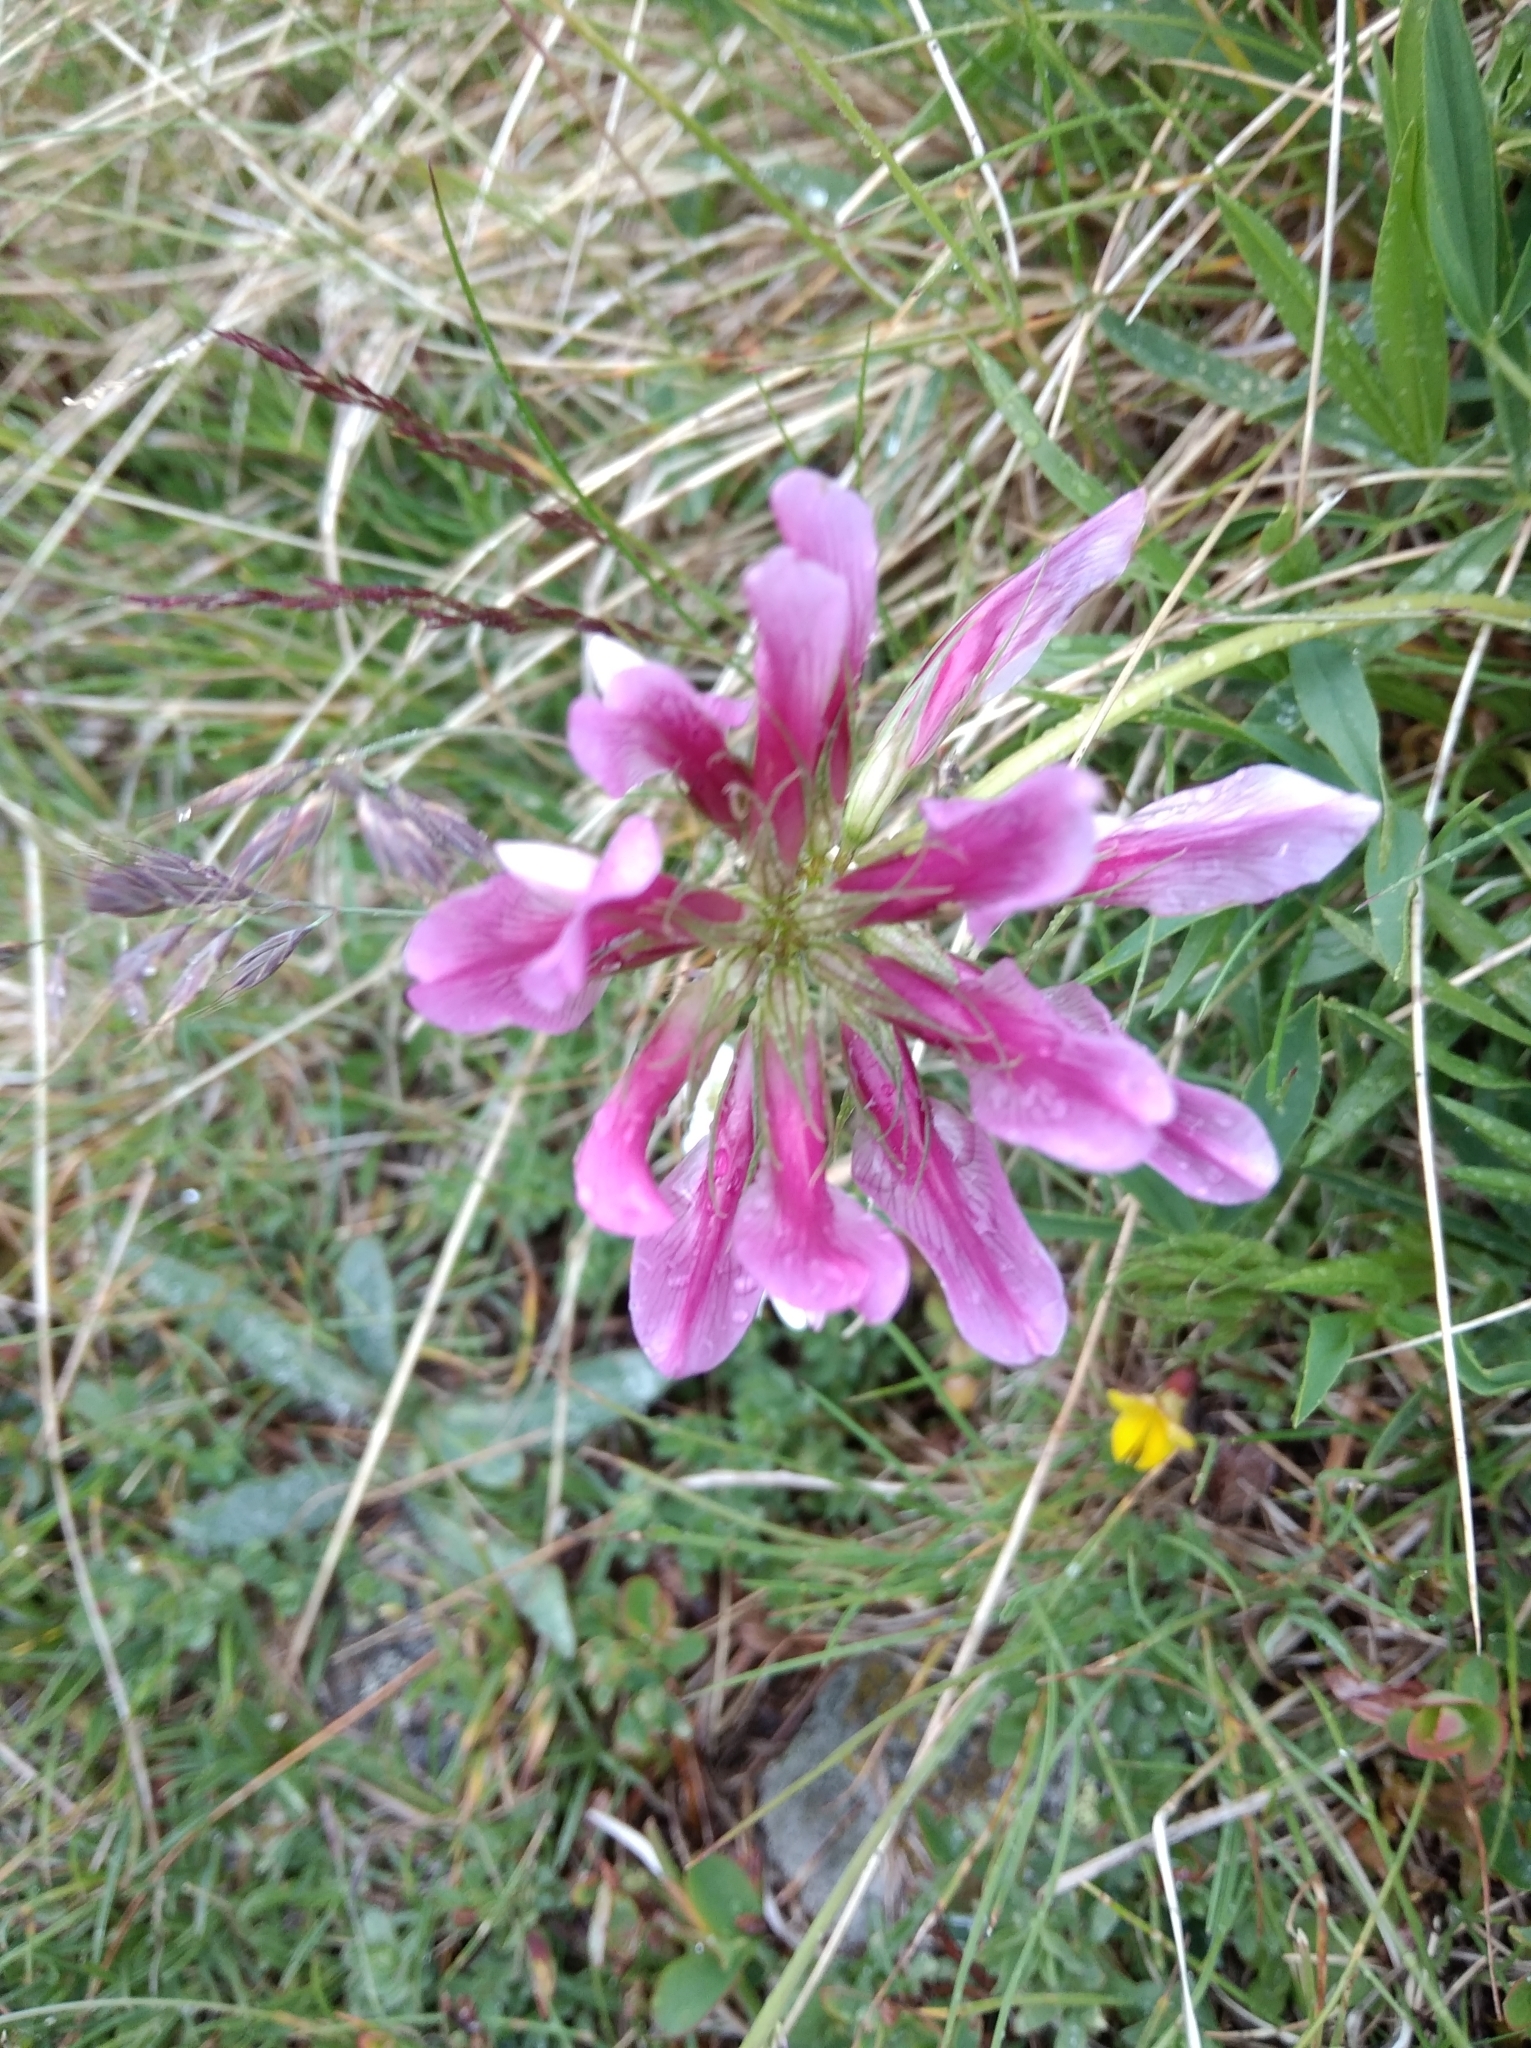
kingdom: Plantae
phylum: Tracheophyta
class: Magnoliopsida
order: Fabales
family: Fabaceae
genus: Trifolium
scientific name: Trifolium alpinum
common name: Alpine clover
